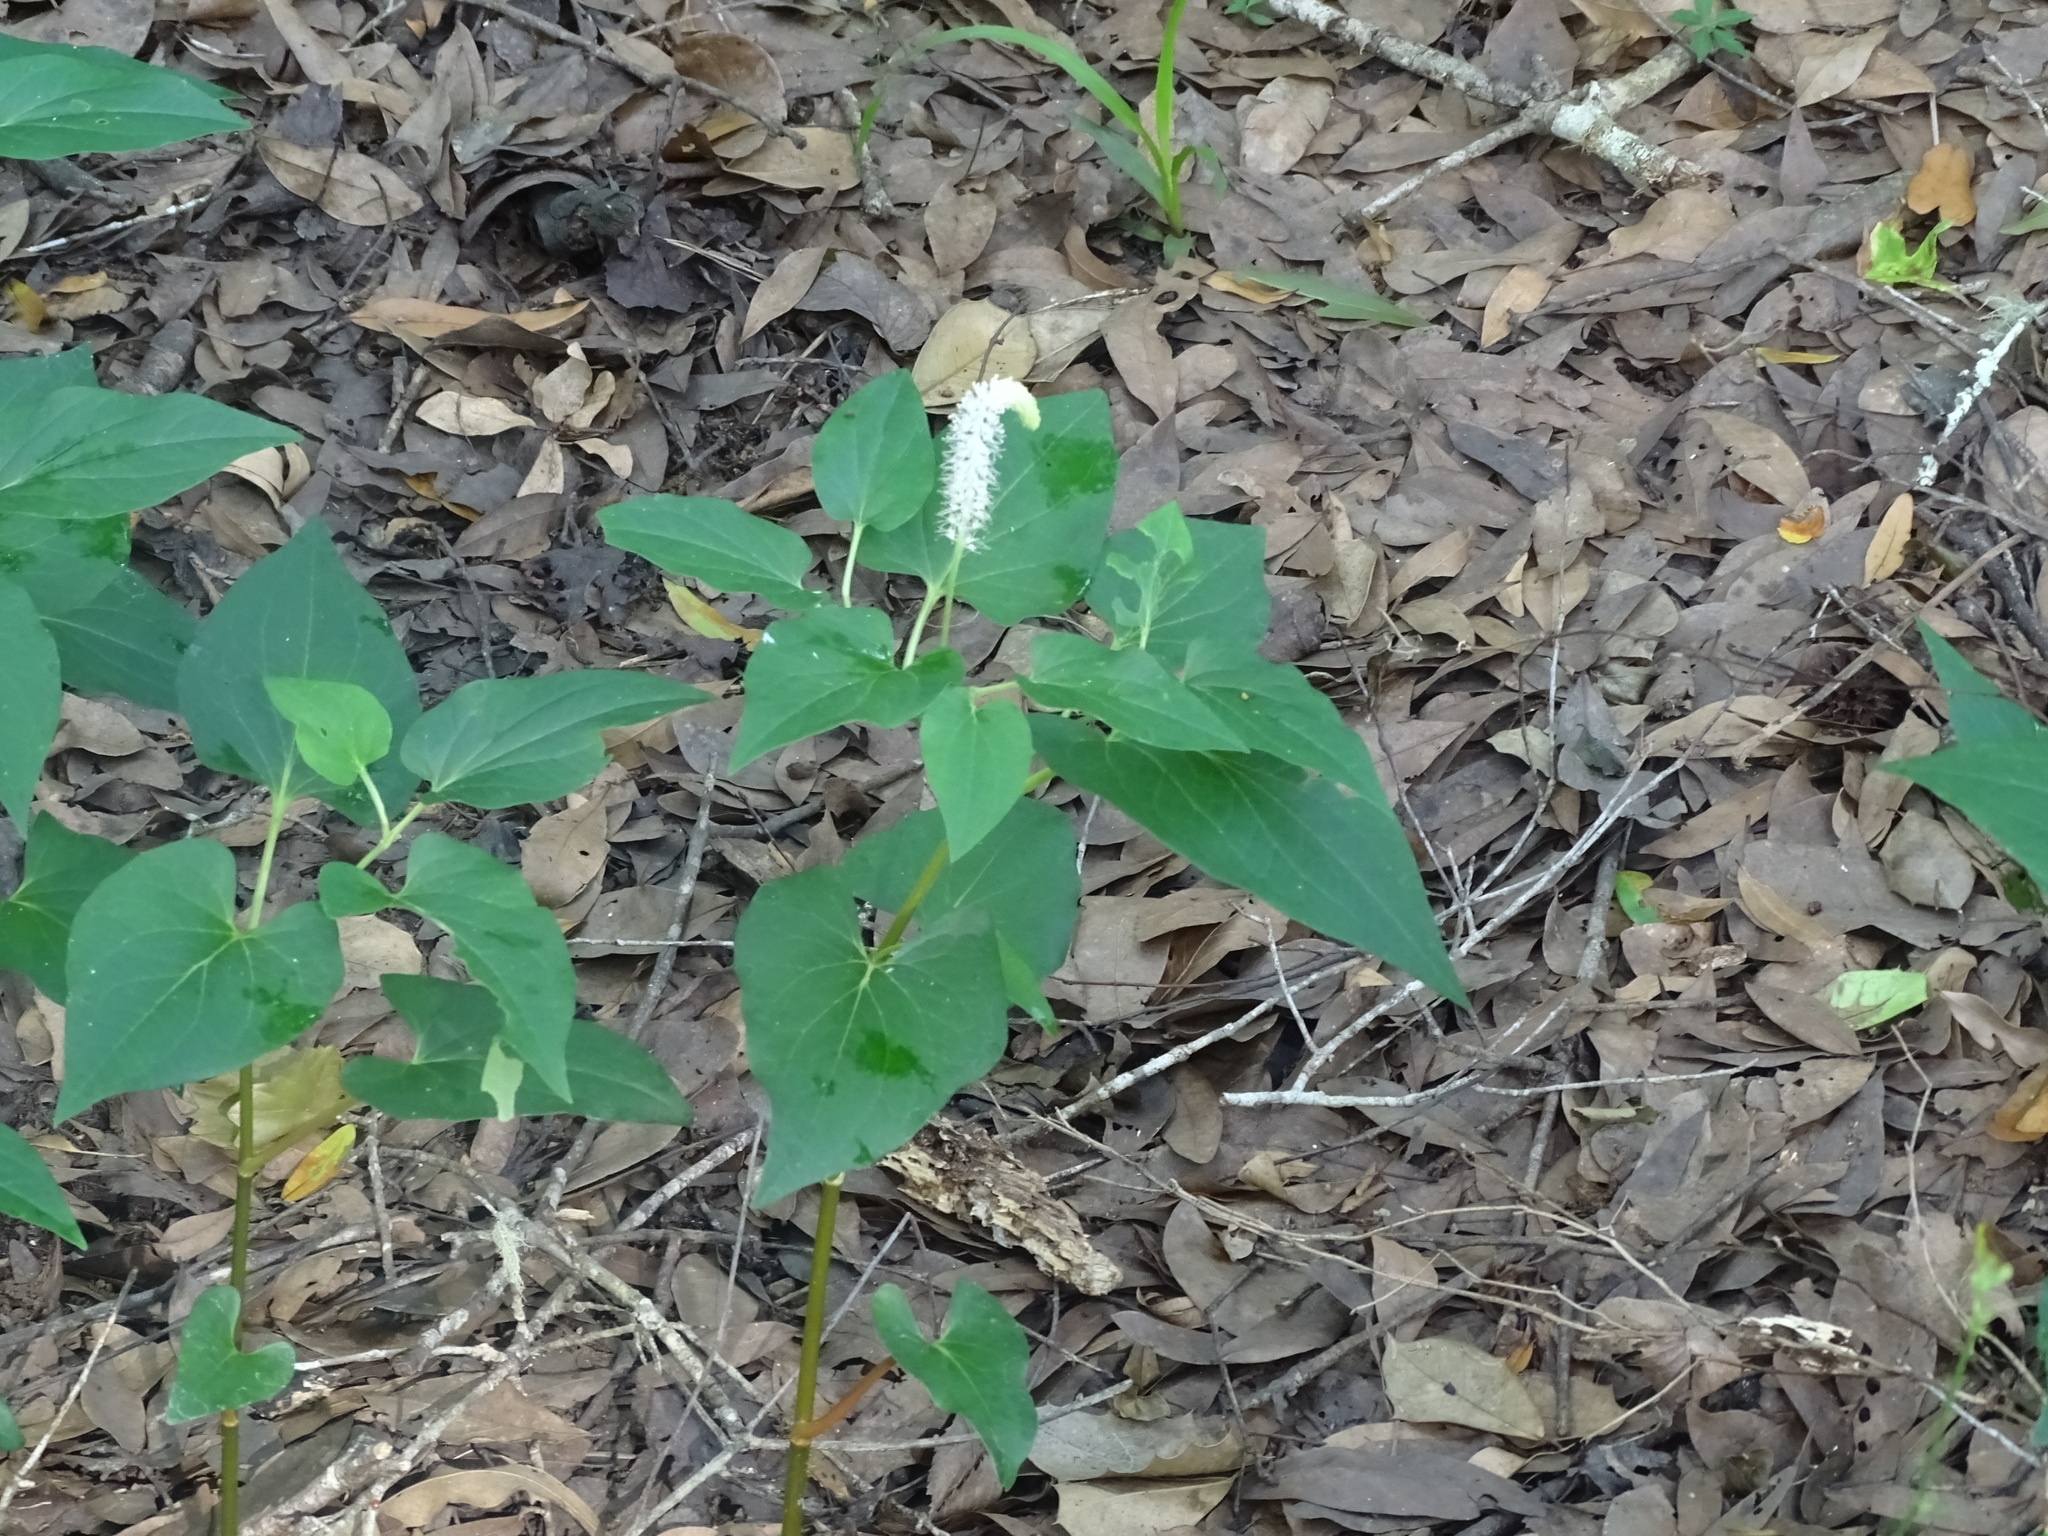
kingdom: Plantae
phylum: Tracheophyta
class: Magnoliopsida
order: Piperales
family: Saururaceae
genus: Saururus
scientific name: Saururus cernuus
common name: Lizard's-tail
